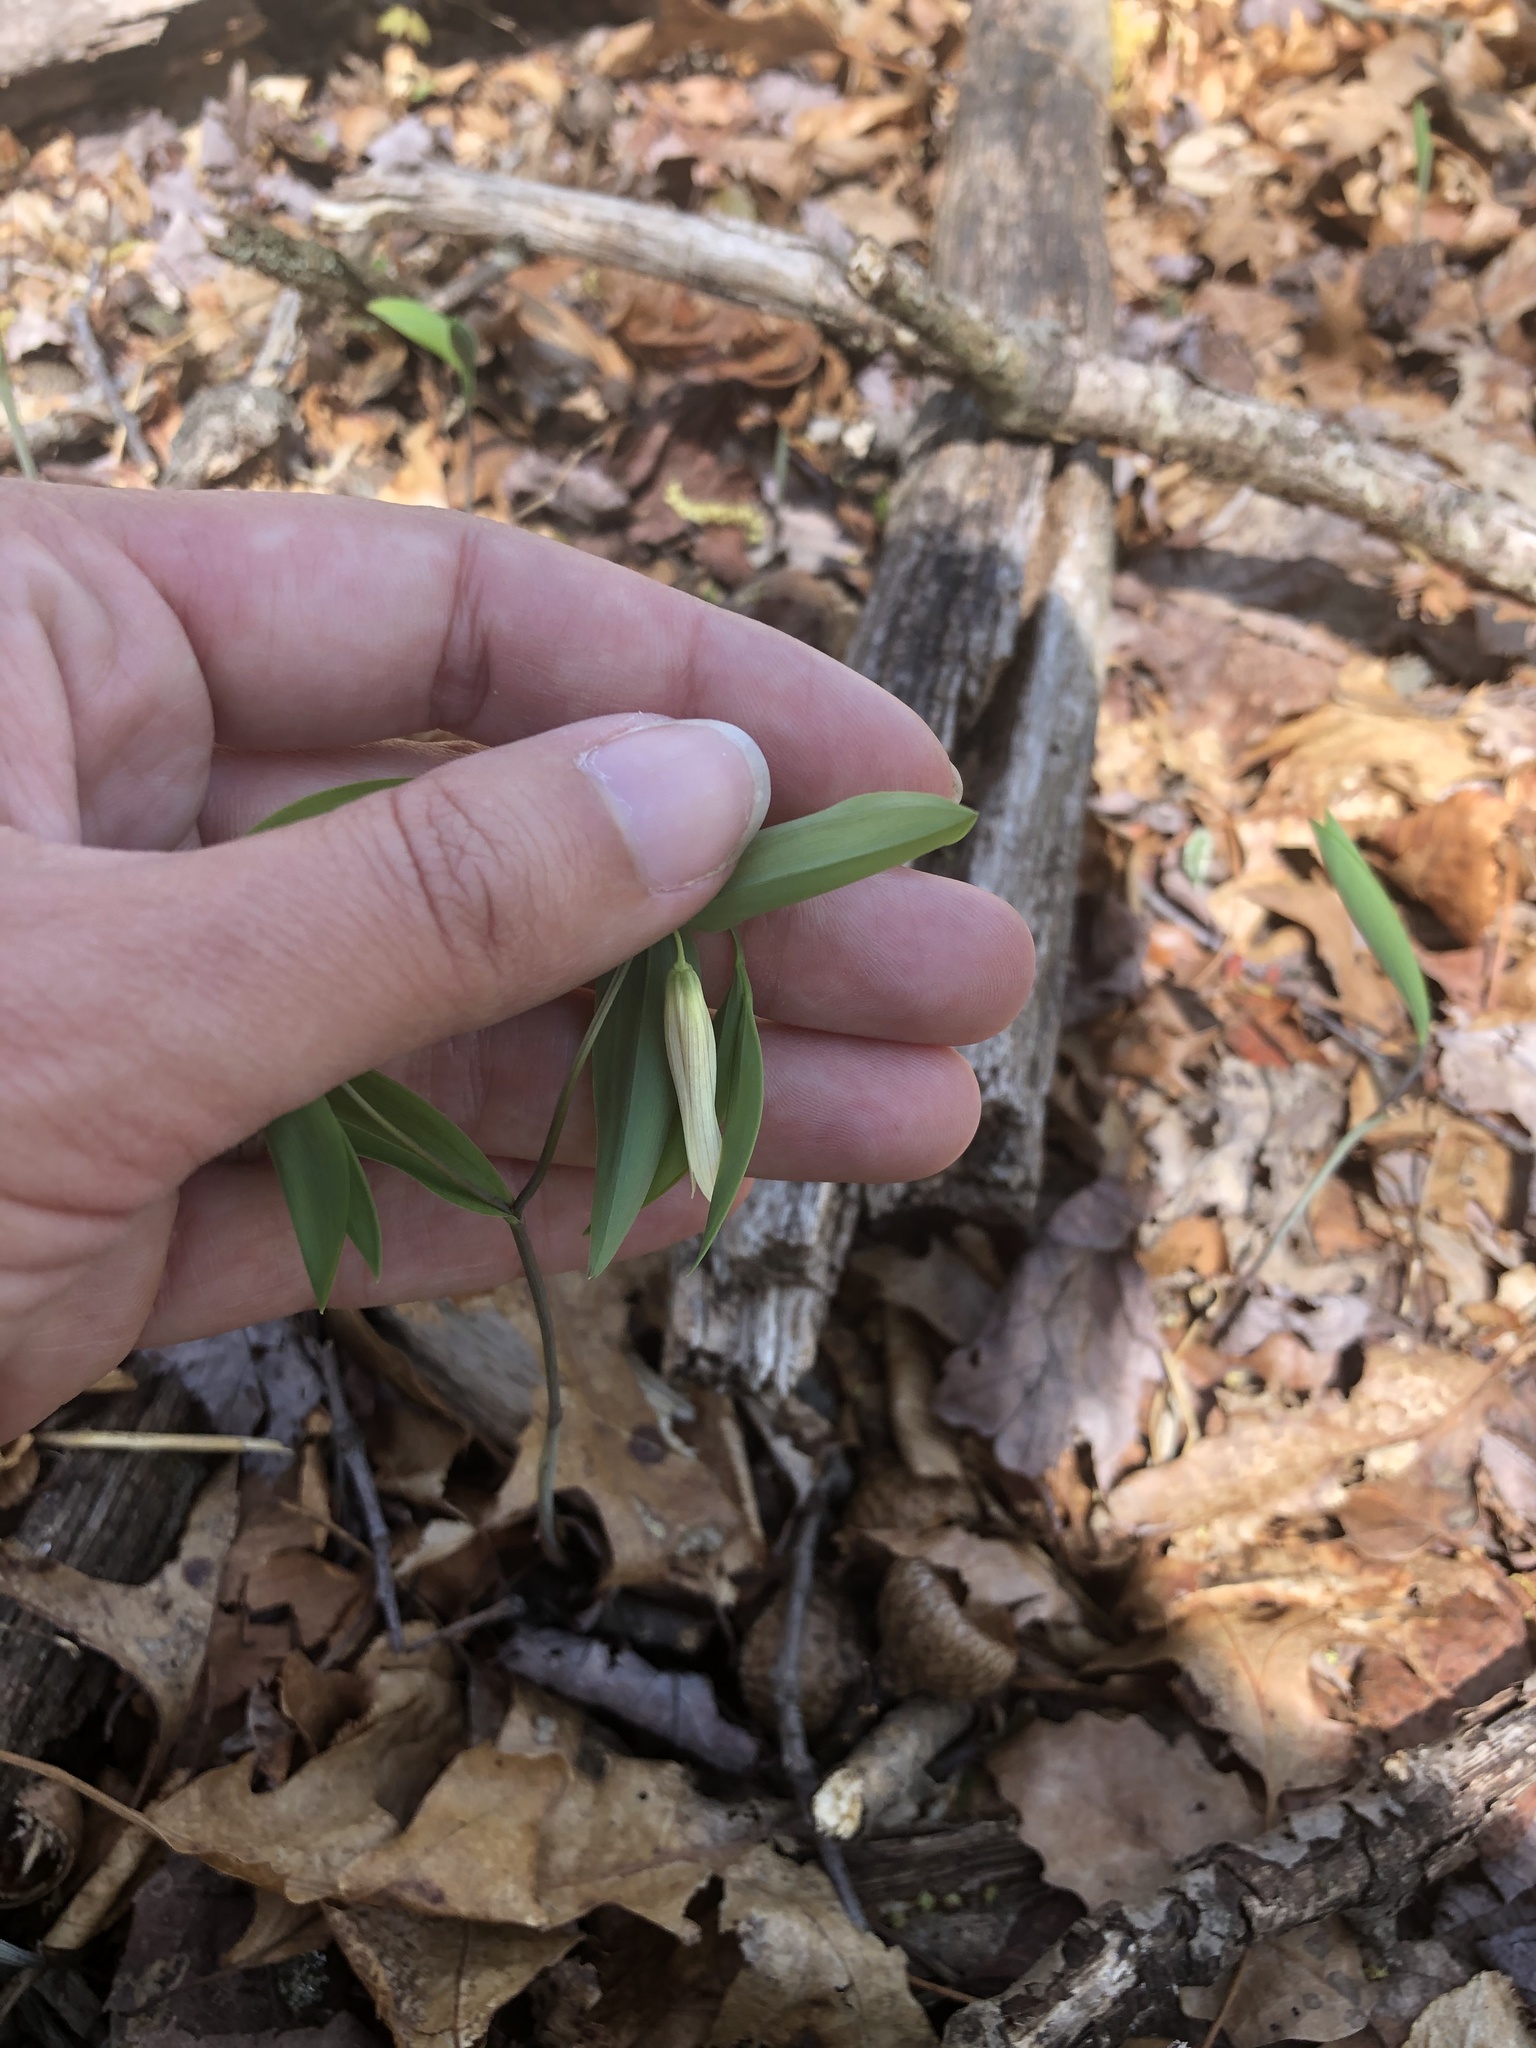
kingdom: Plantae
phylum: Tracheophyta
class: Liliopsida
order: Liliales
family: Colchicaceae
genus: Uvularia
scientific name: Uvularia sessilifolia
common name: Straw-lily
